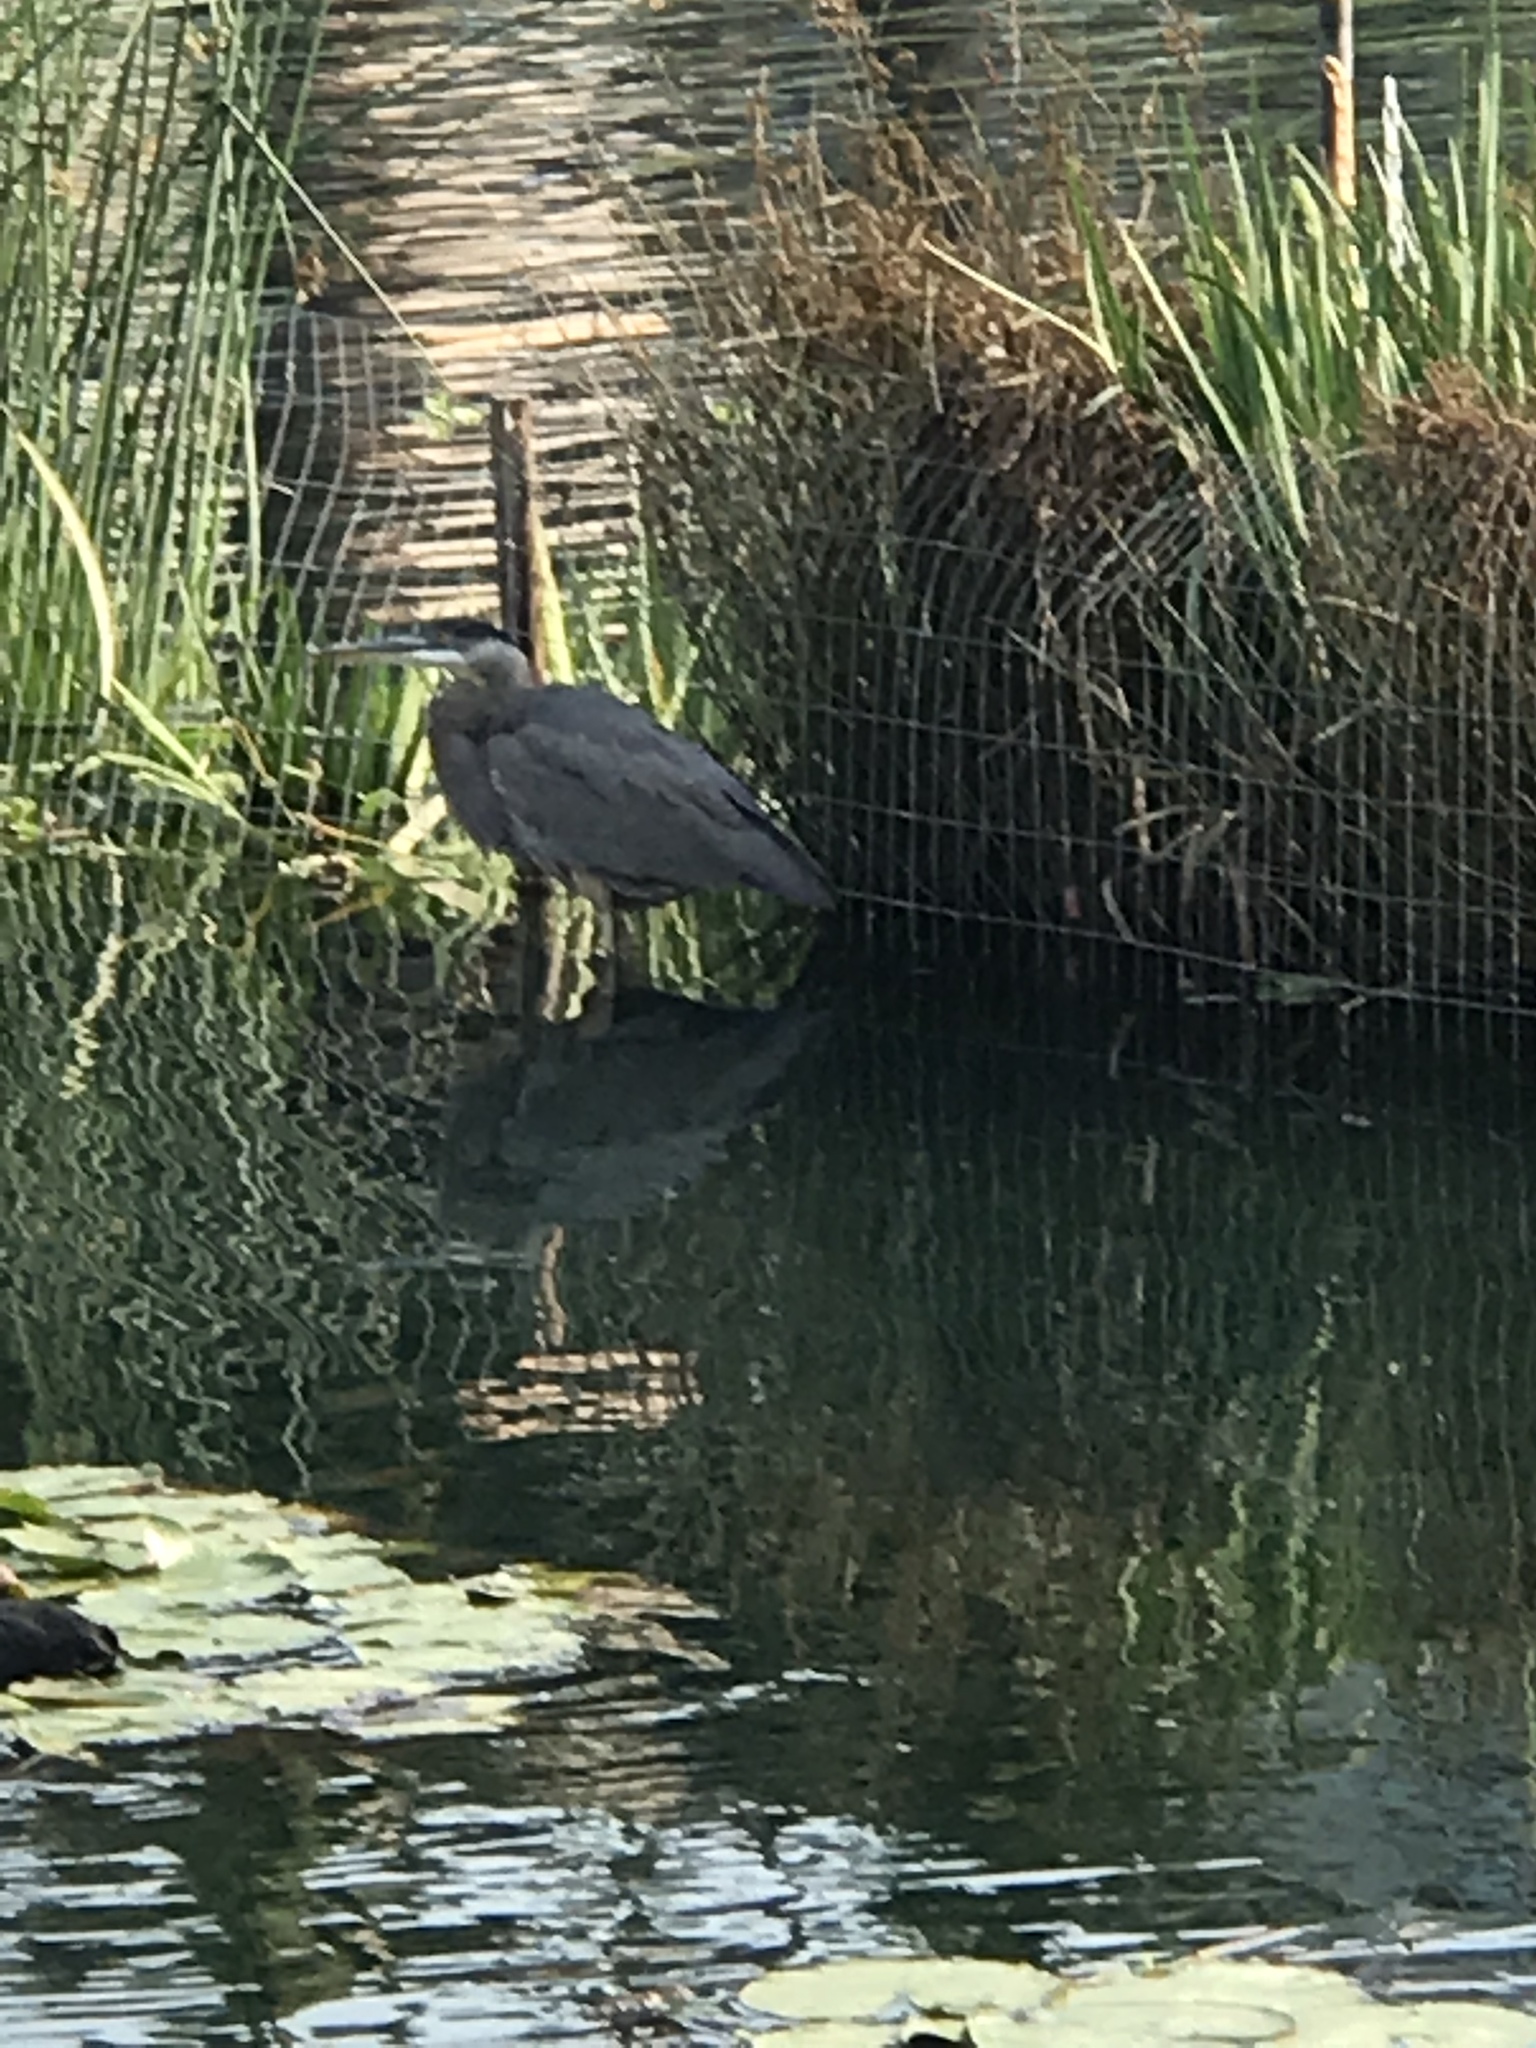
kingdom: Animalia
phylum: Chordata
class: Aves
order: Pelecaniformes
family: Ardeidae
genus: Ardea
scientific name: Ardea herodias
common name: Great blue heron
